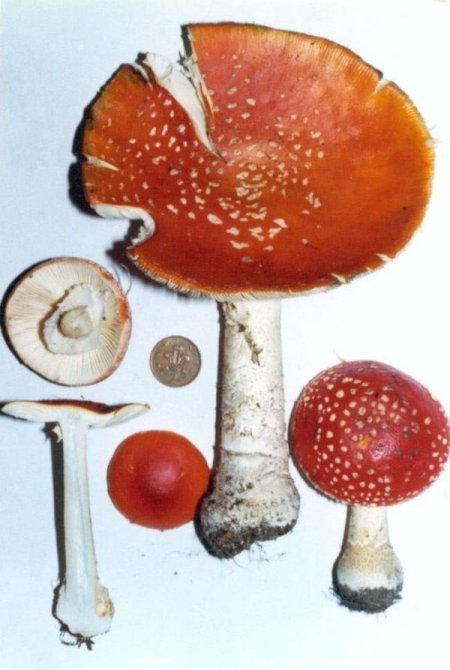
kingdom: Fungi
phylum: Basidiomycota
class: Agaricomycetes
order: Agaricales
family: Amanitaceae
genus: Amanita
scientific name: Amanita muscaria
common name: Fly agaric
